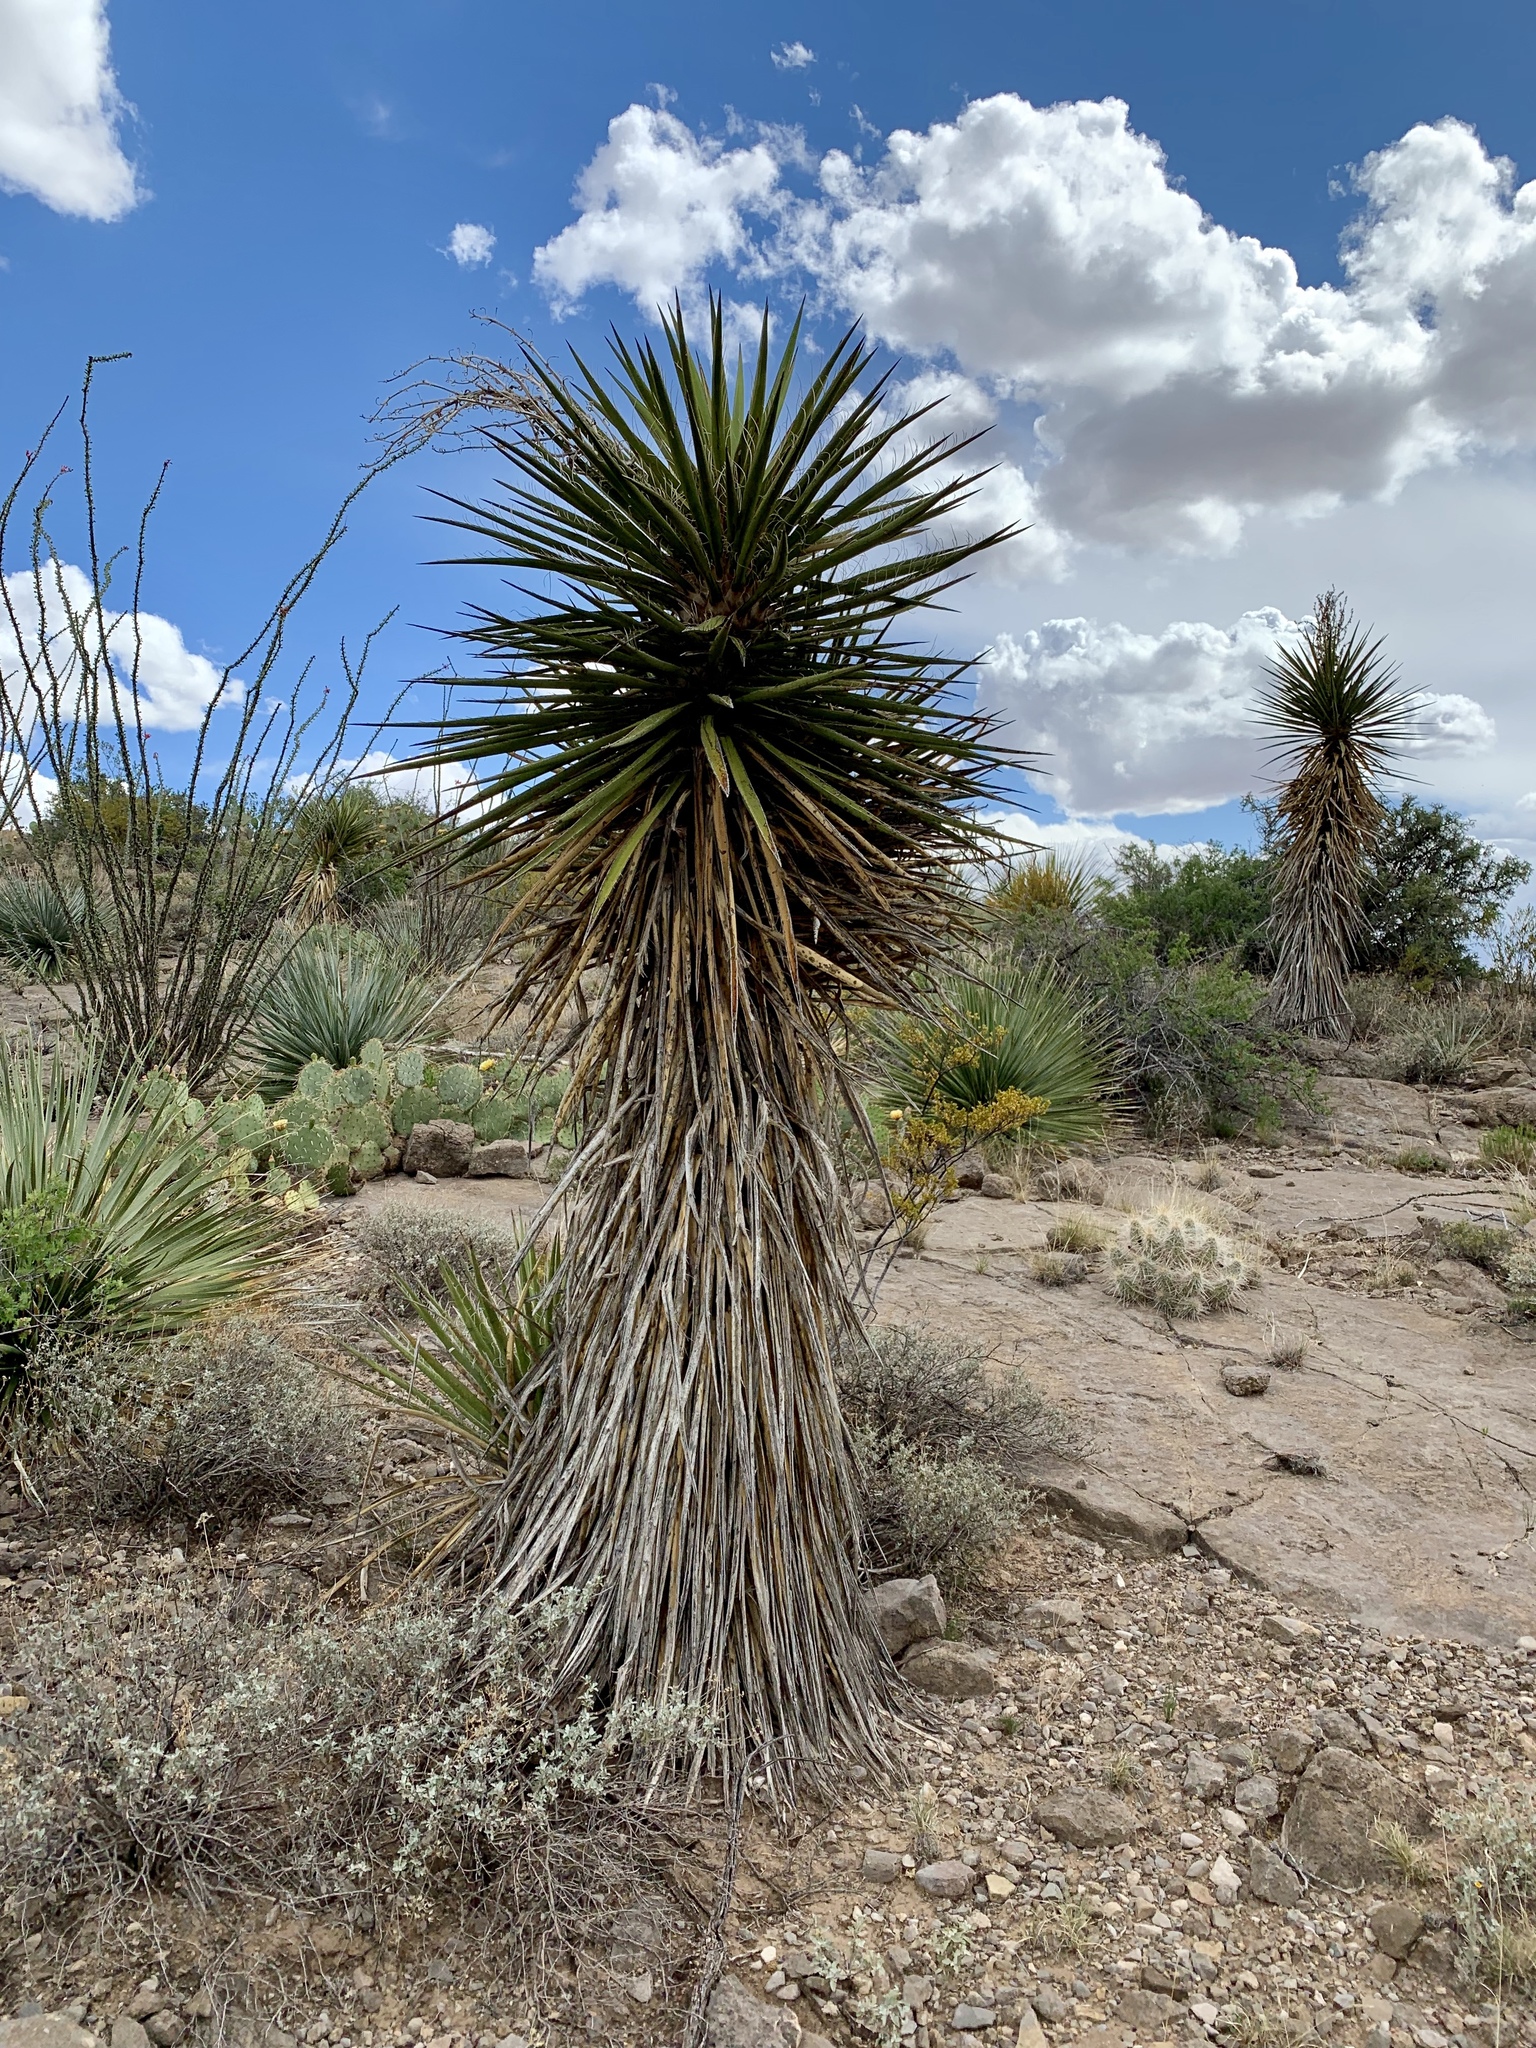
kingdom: Plantae
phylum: Tracheophyta
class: Liliopsida
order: Asparagales
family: Asparagaceae
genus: Yucca
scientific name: Yucca treculiana
